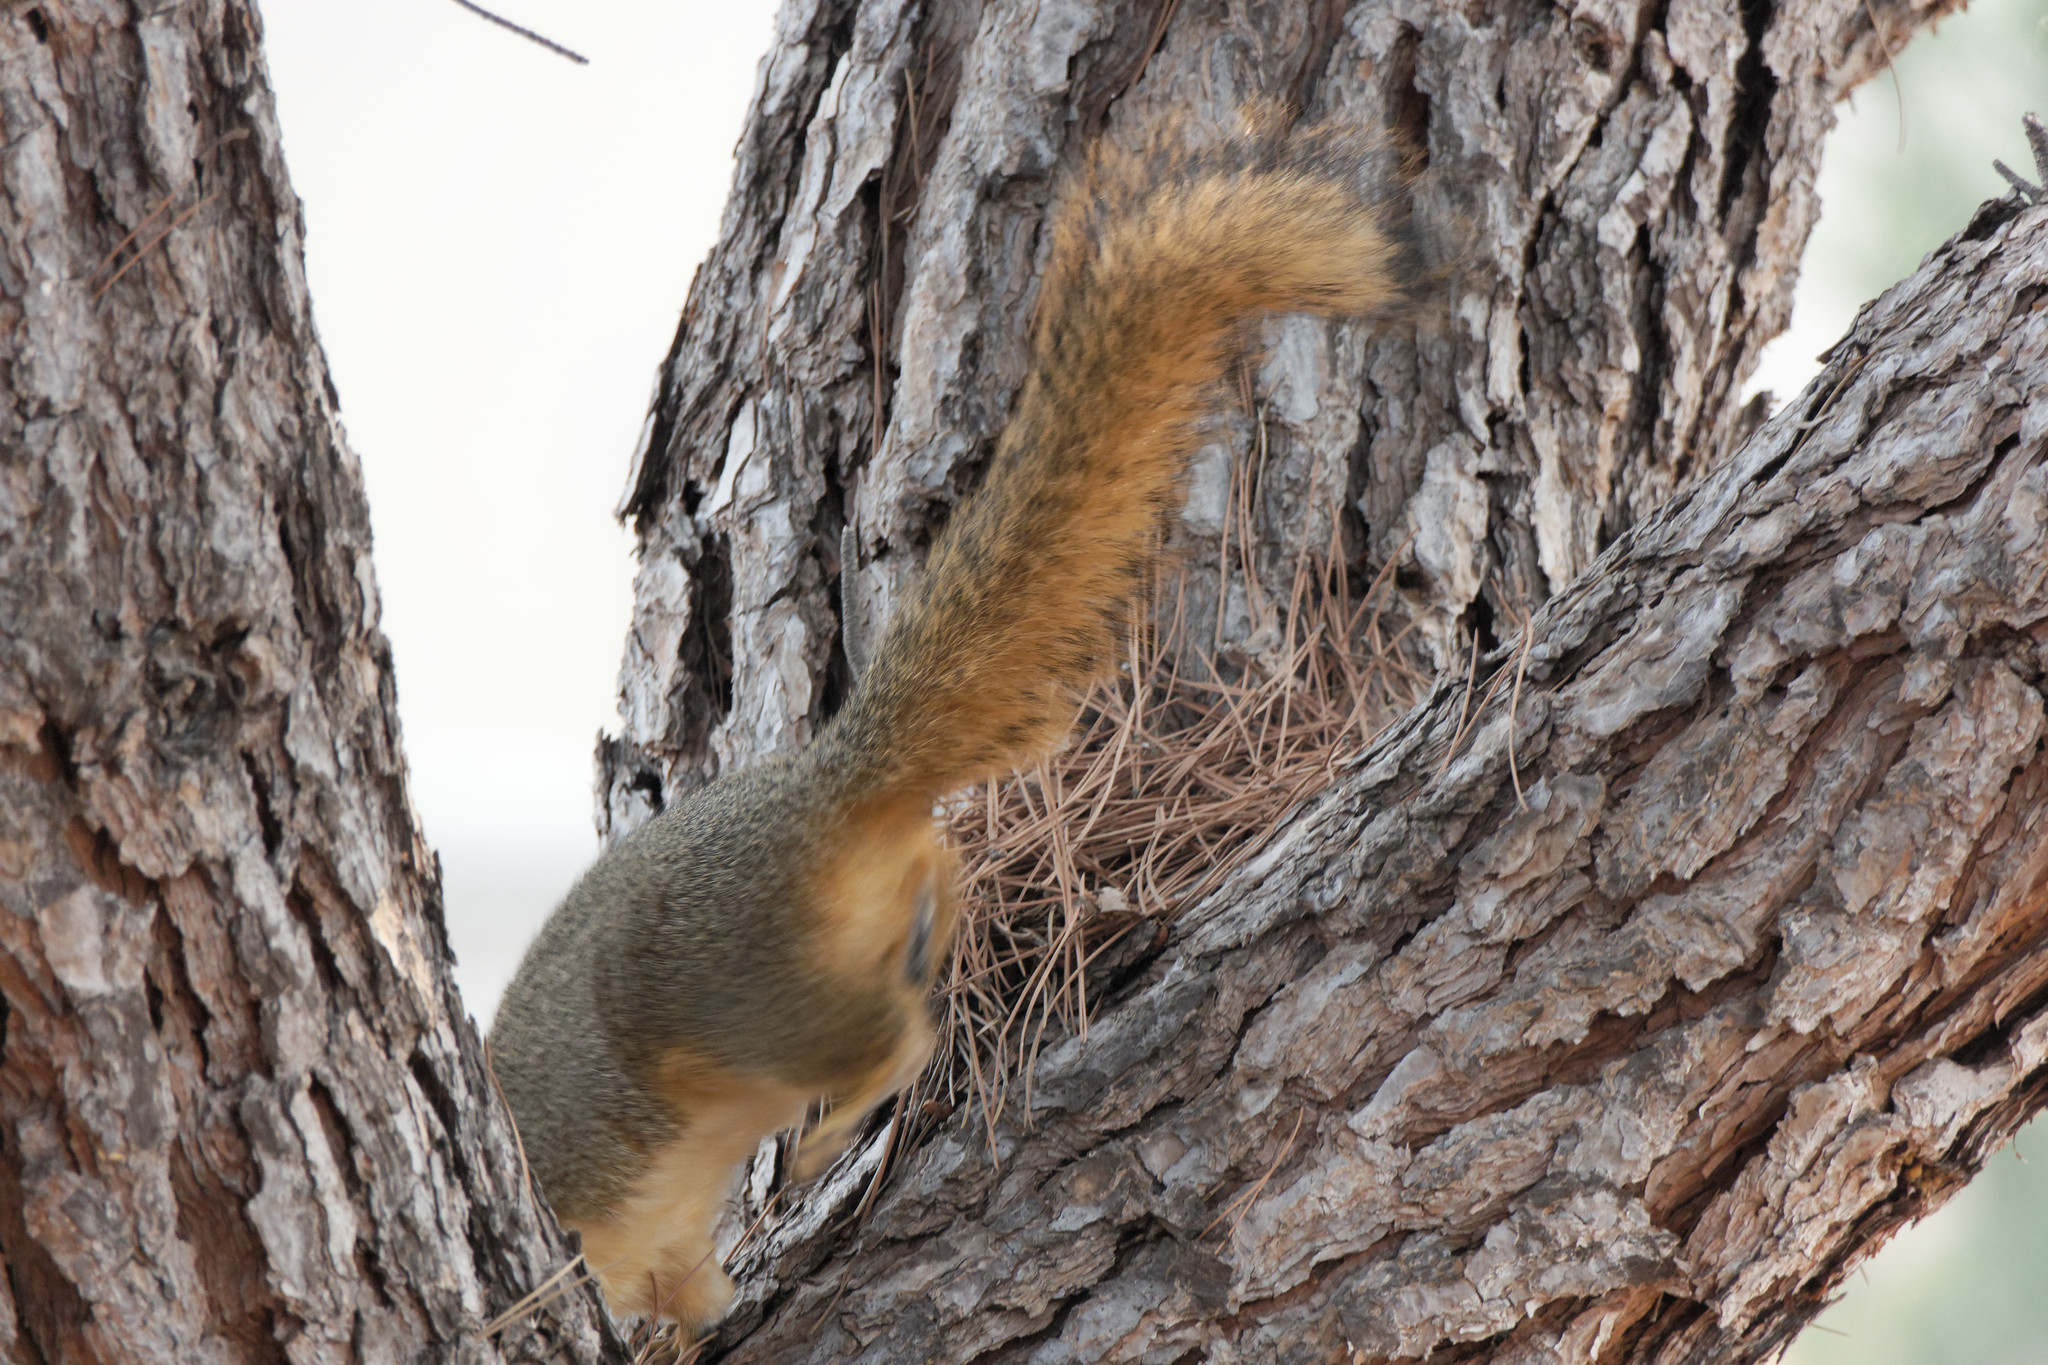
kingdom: Animalia
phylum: Chordata
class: Mammalia
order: Rodentia
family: Sciuridae
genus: Sciurus
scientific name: Sciurus niger
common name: Fox squirrel
